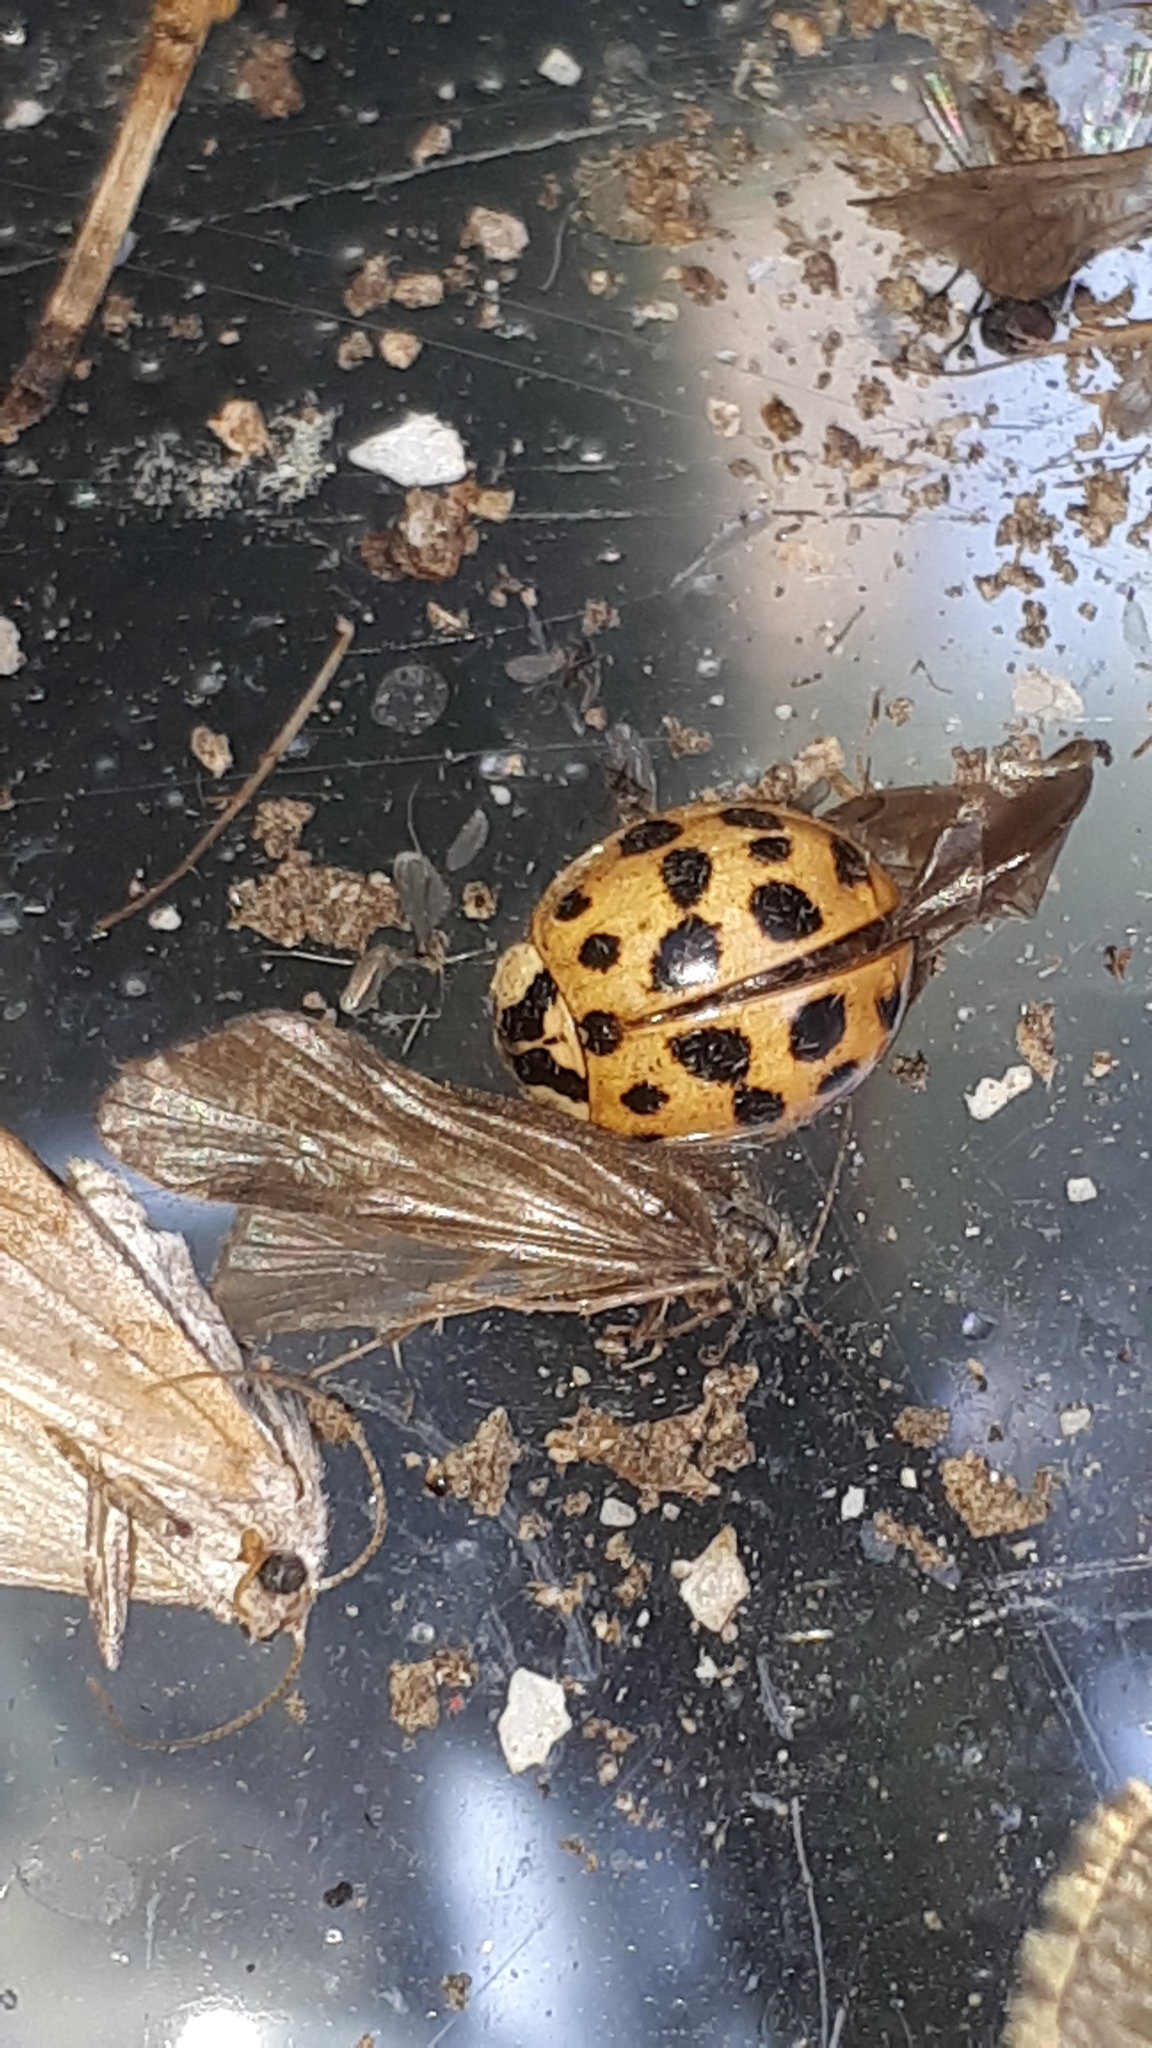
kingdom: Animalia
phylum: Arthropoda
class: Insecta
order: Coleoptera
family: Coccinellidae
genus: Harmonia
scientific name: Harmonia axyridis
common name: Harlequin ladybird
